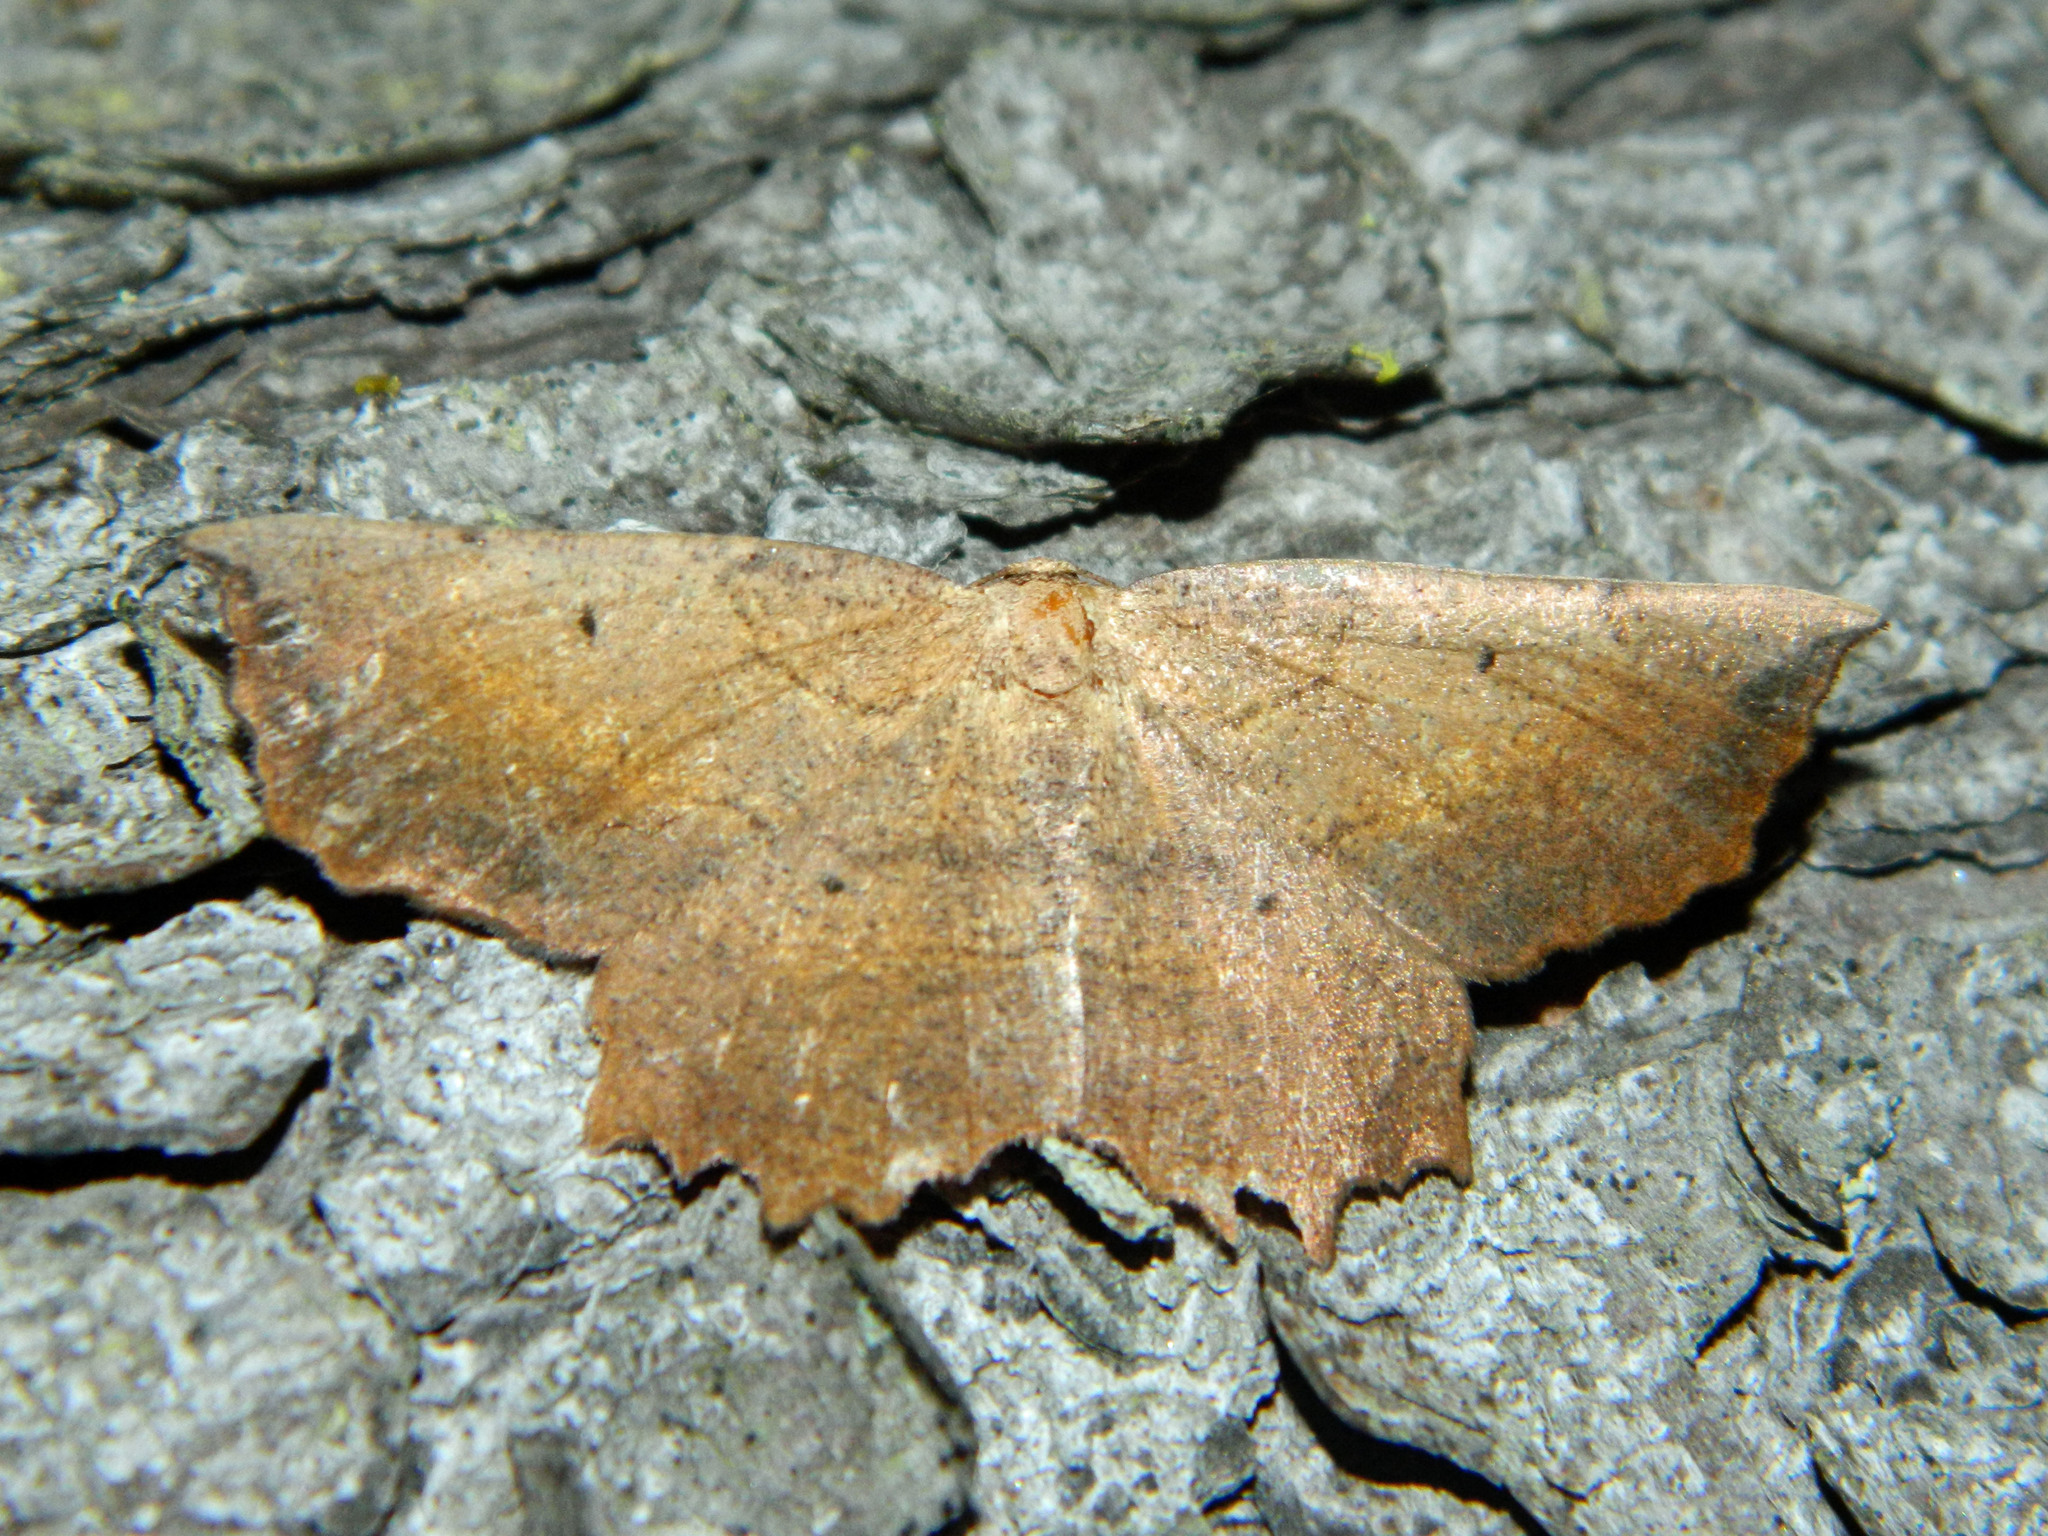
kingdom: Animalia
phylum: Arthropoda
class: Insecta
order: Lepidoptera
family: Geometridae
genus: Euchlaena
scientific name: Euchlaena muzaria
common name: Muzaria euchlaena
